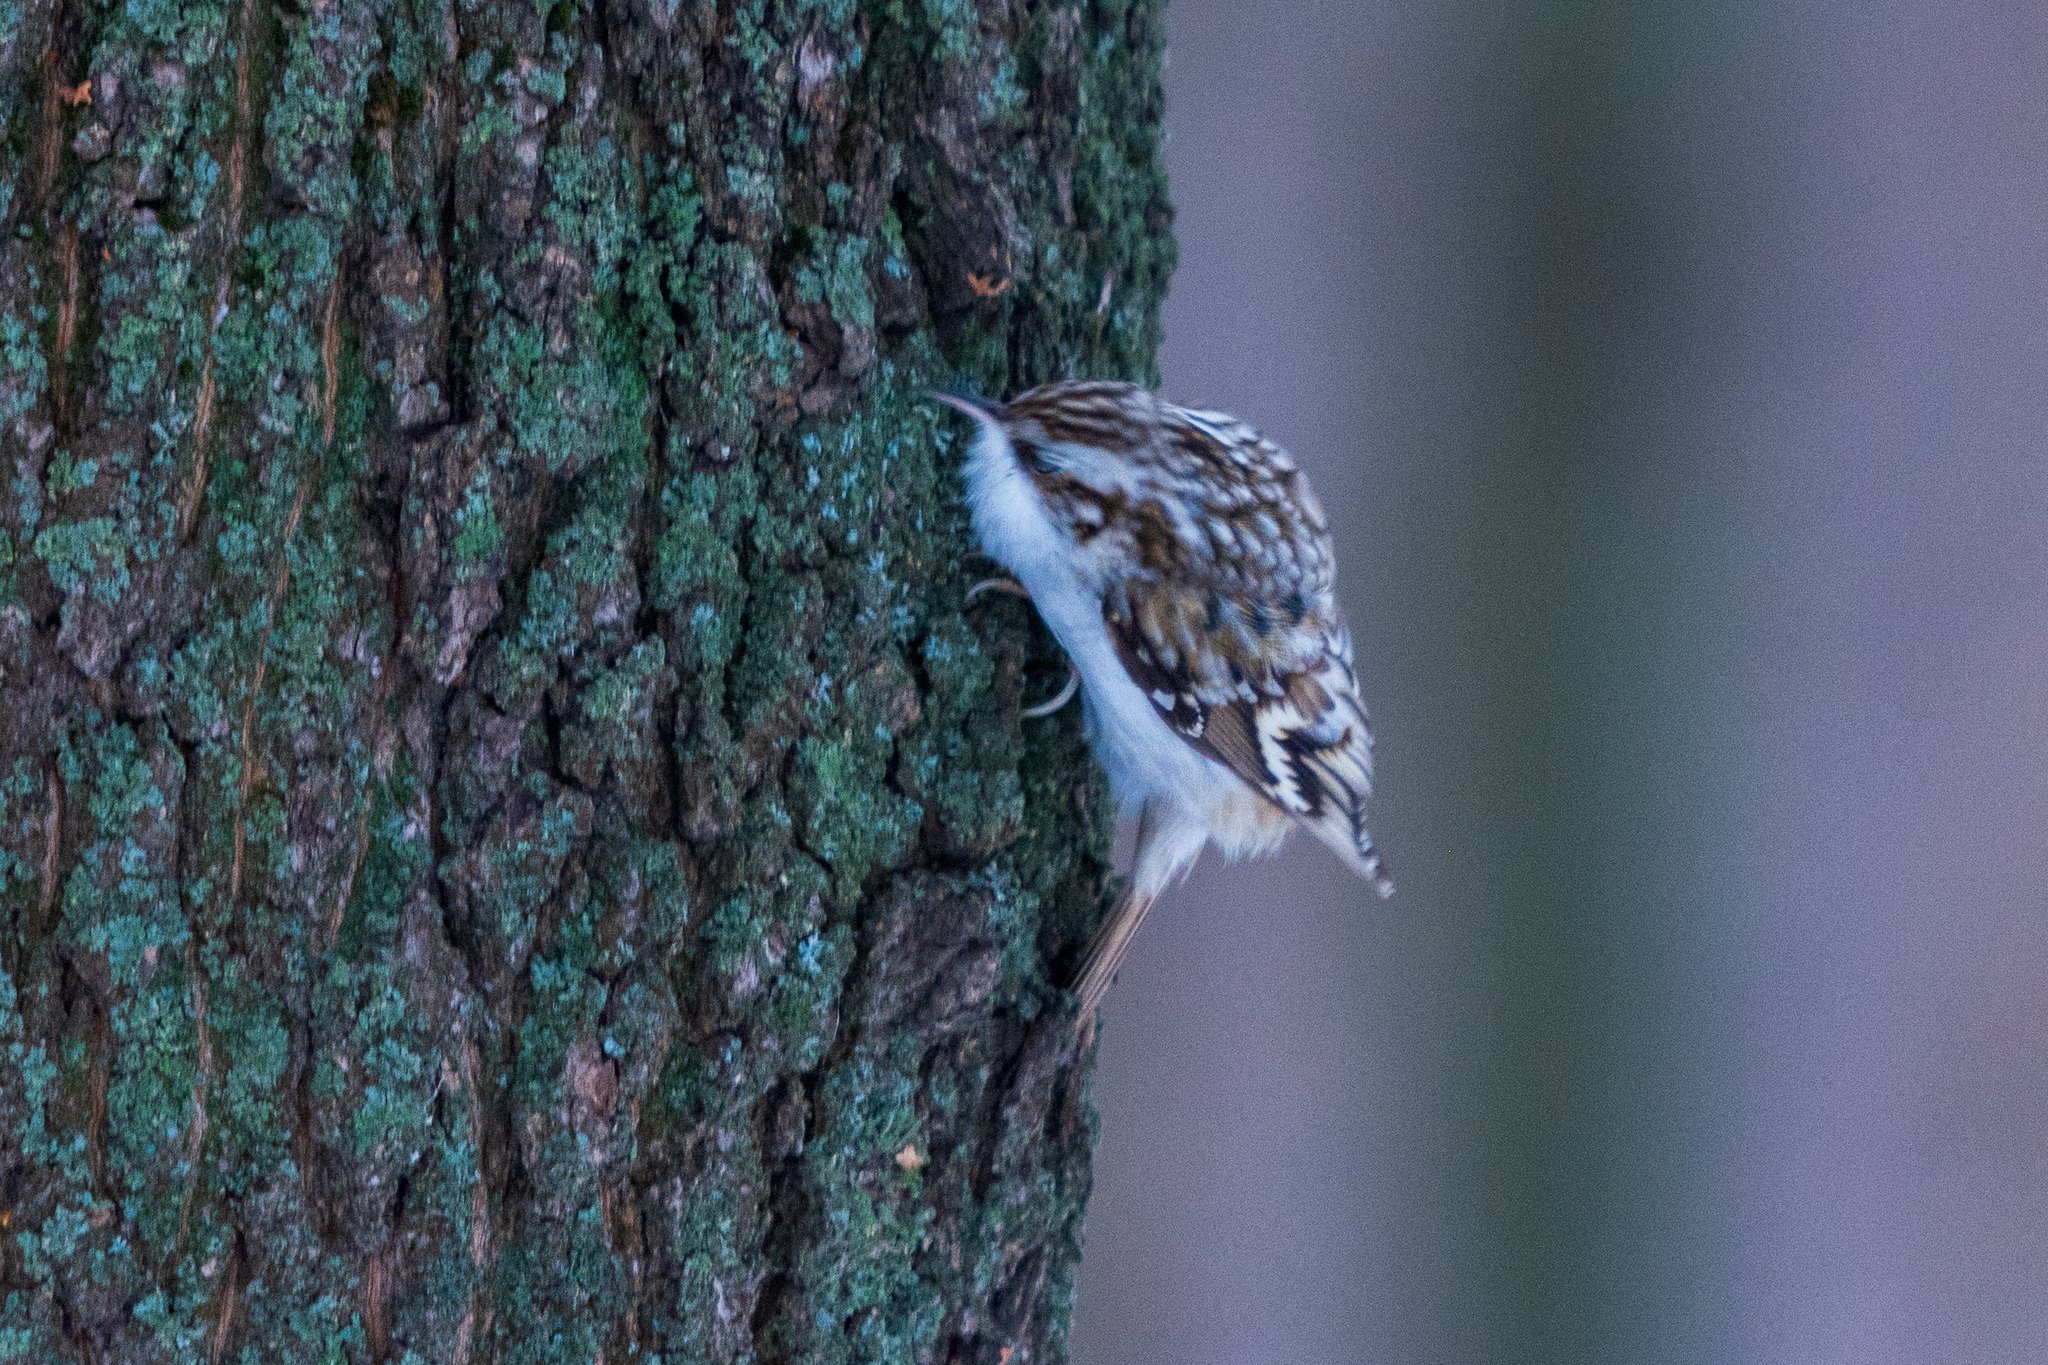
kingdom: Animalia
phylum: Chordata
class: Aves
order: Passeriformes
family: Certhiidae
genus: Certhia
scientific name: Certhia familiaris
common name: Eurasian treecreeper
